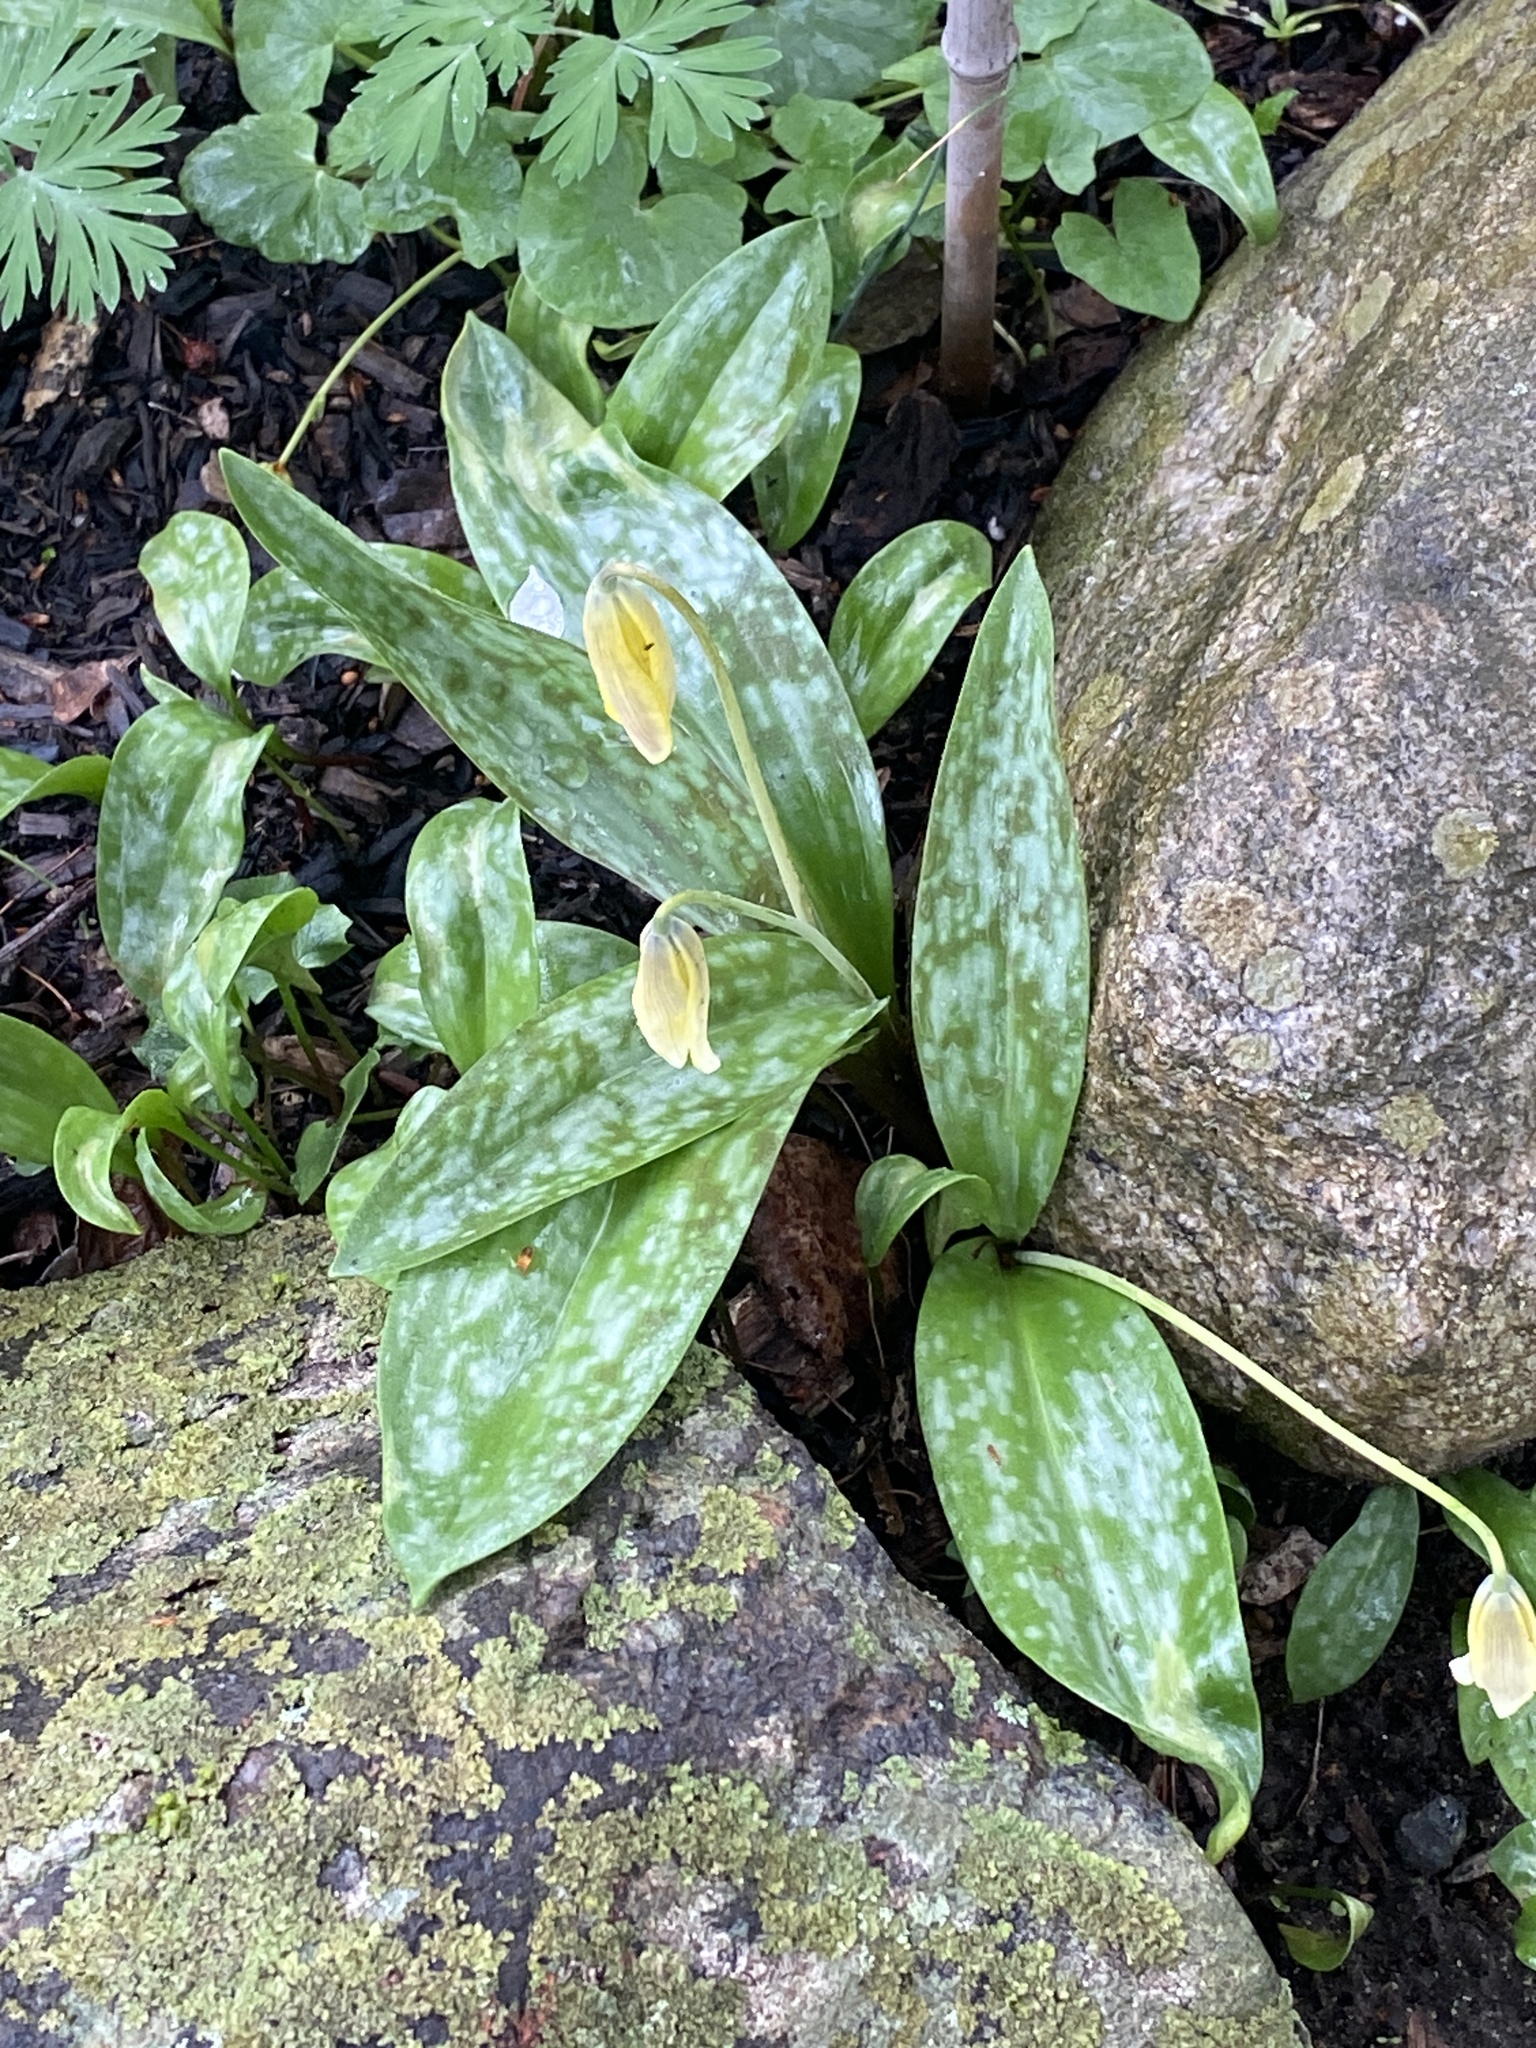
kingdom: Plantae
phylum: Tracheophyta
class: Liliopsida
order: Liliales
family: Liliaceae
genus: Erythronium
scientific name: Erythronium americanum
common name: Yellow adder's-tongue
